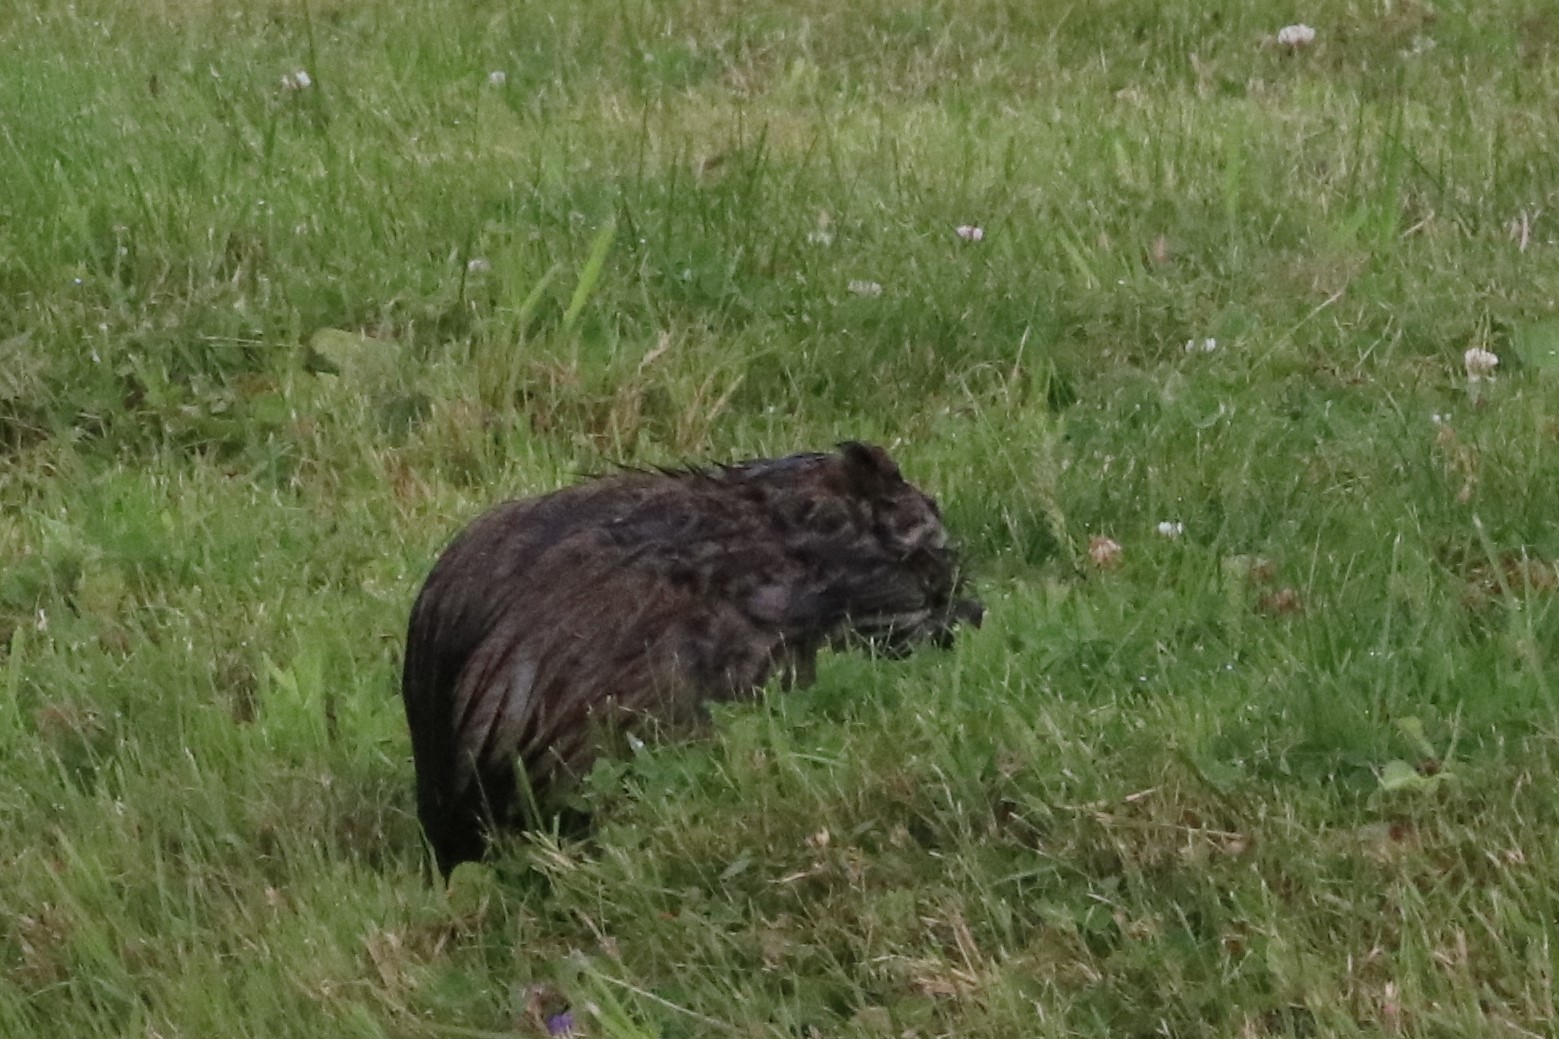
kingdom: Animalia
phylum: Chordata
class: Mammalia
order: Rodentia
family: Cricetidae
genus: Ondatra
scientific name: Ondatra zibethicus
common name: Muskrat
